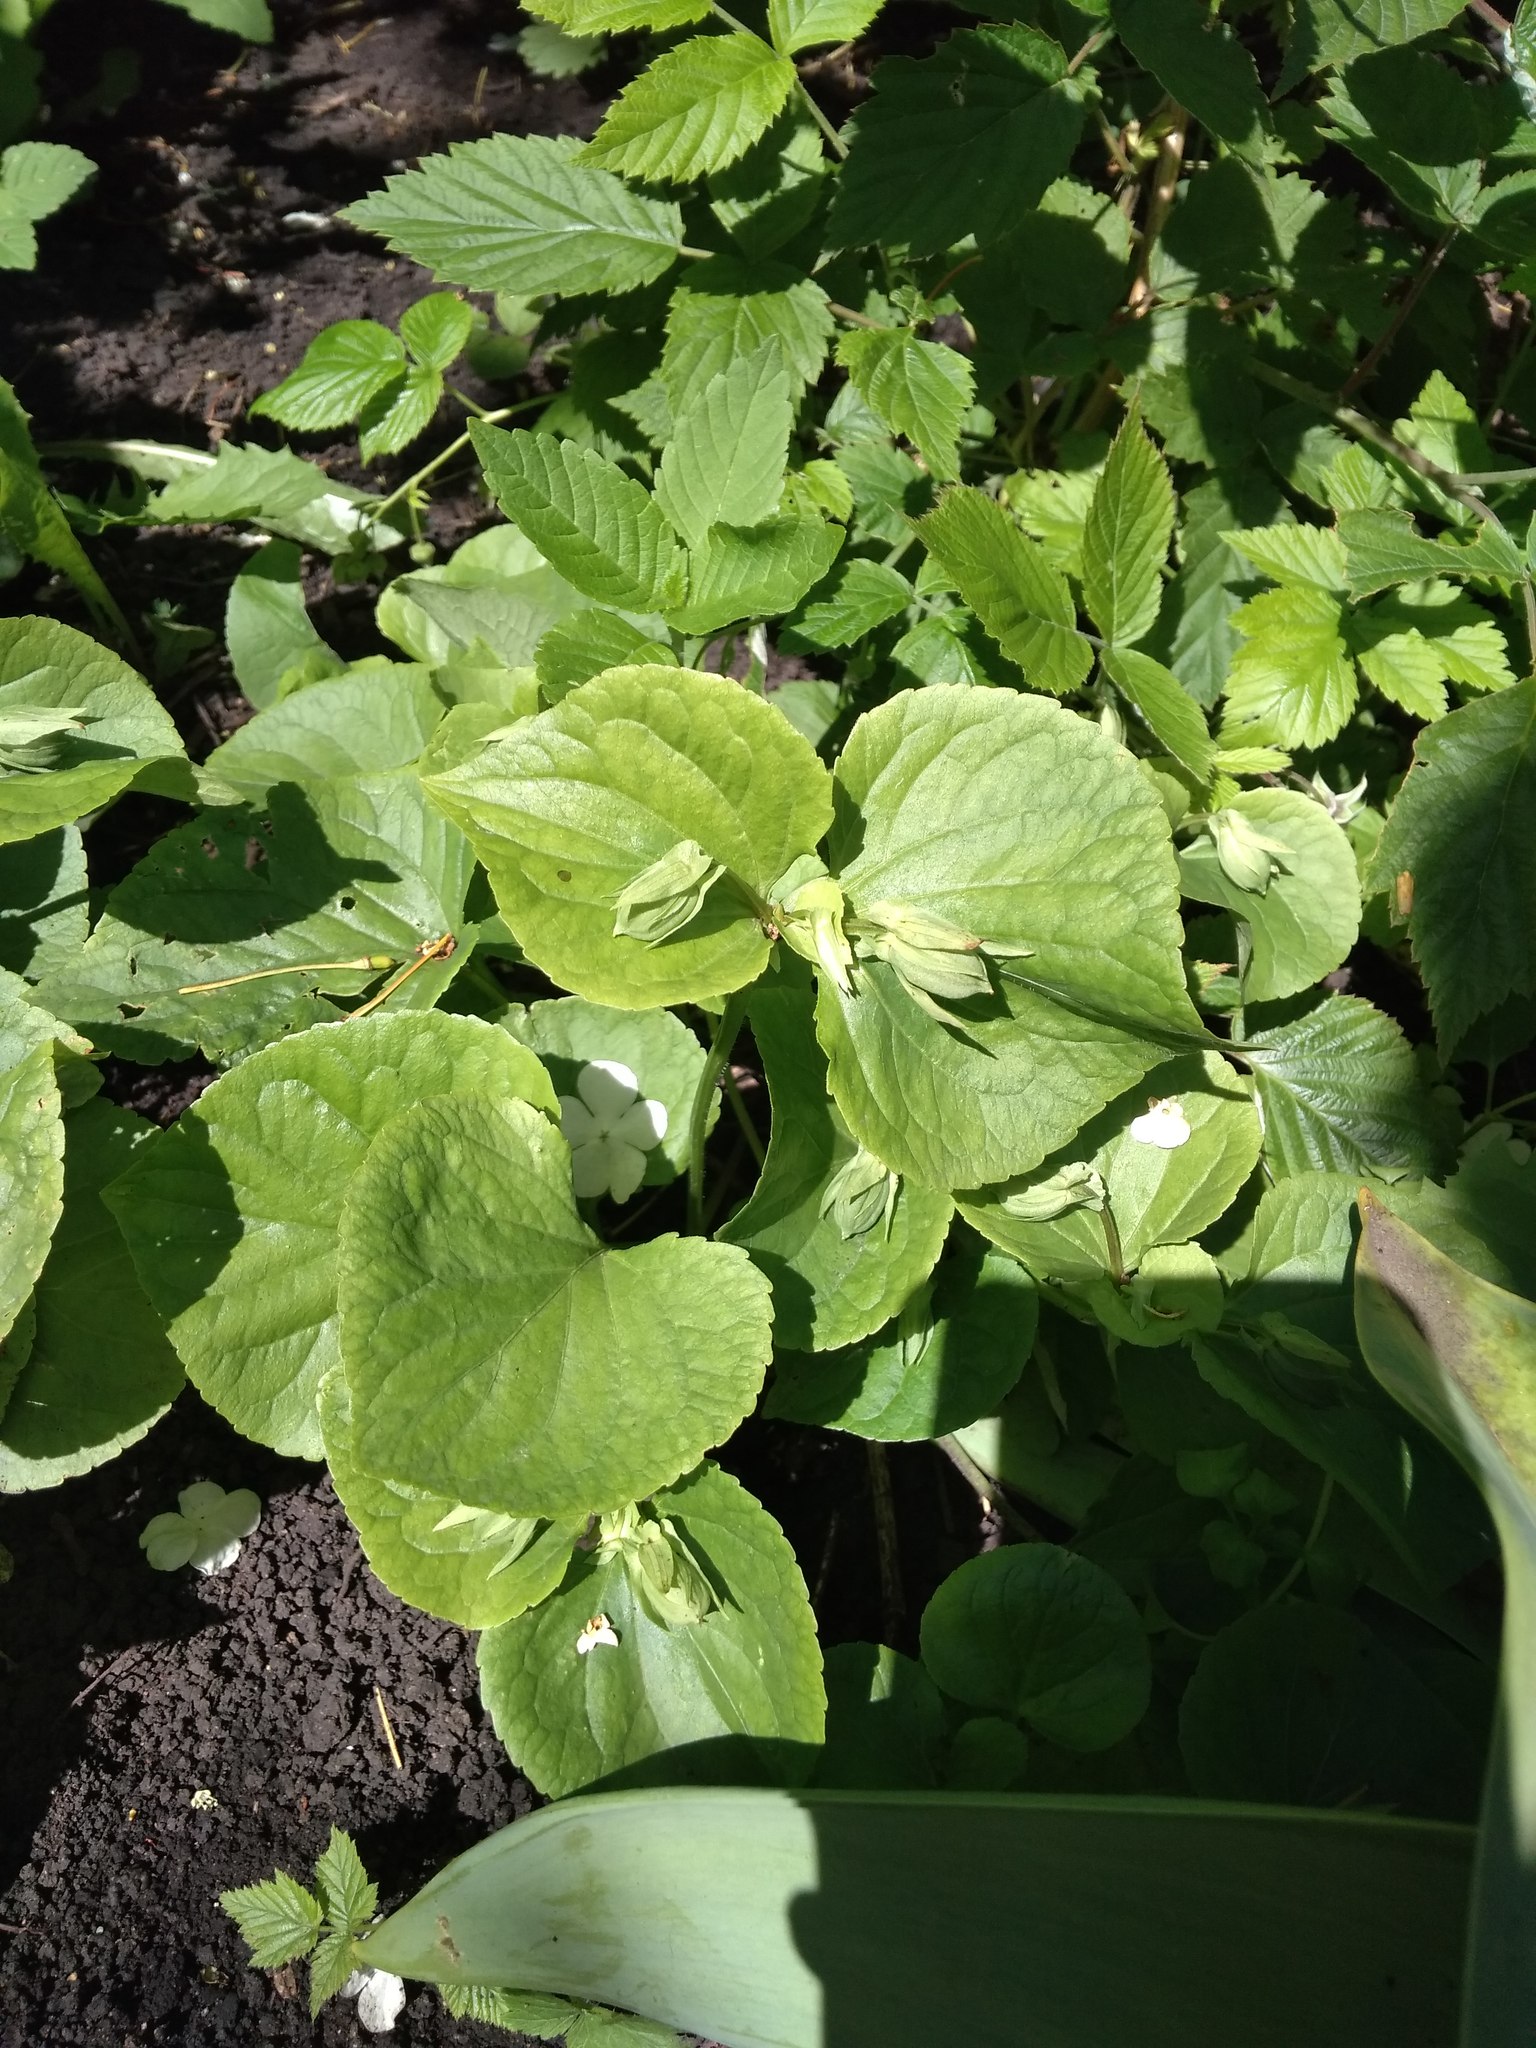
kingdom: Plantae
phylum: Tracheophyta
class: Magnoliopsida
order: Malpighiales
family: Violaceae
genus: Viola
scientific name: Viola mirabilis
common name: Wonder violet
